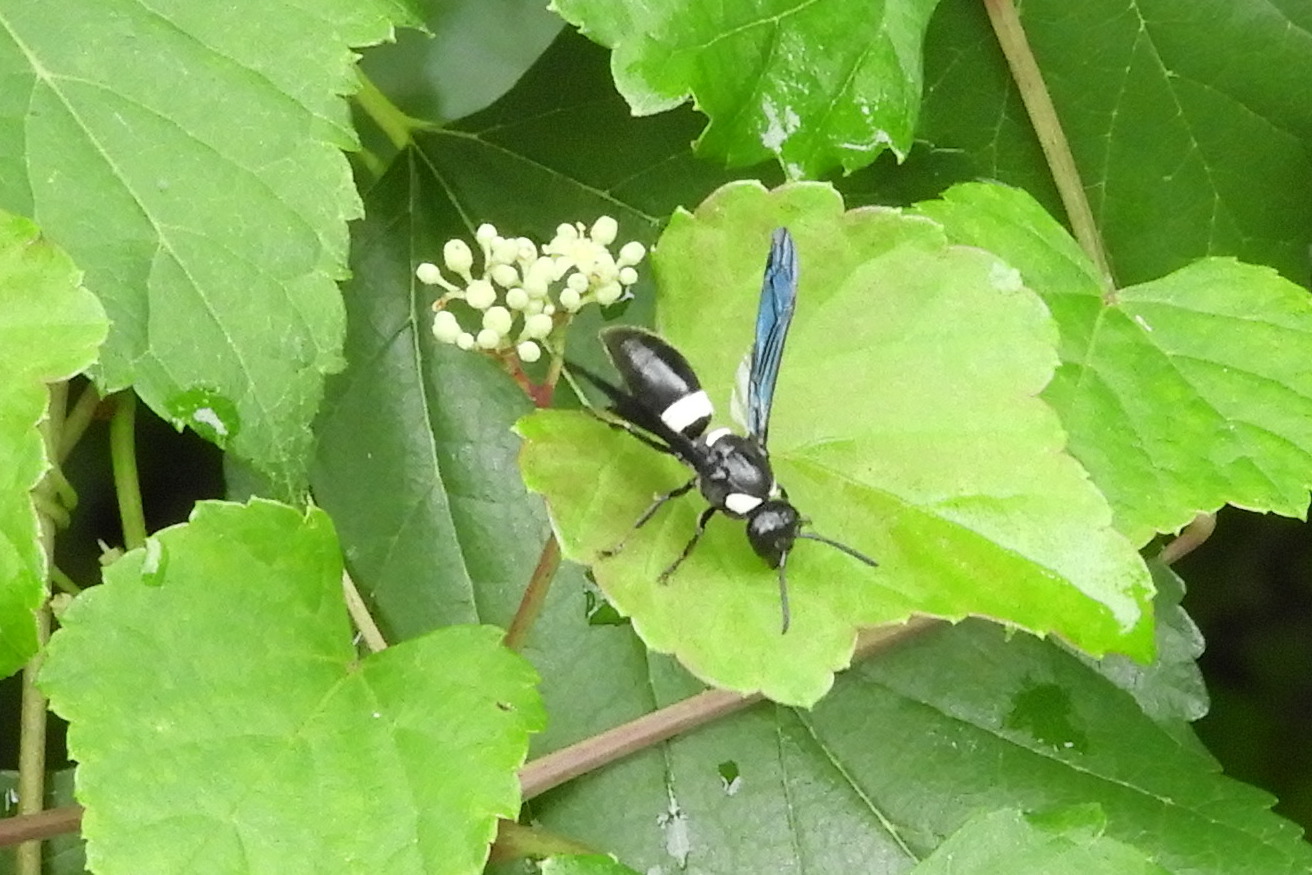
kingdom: Animalia
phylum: Arthropoda
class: Insecta
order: Hymenoptera
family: Eumenidae
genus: Monobia
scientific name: Monobia quadridens
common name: Four-toothed mason wasp
